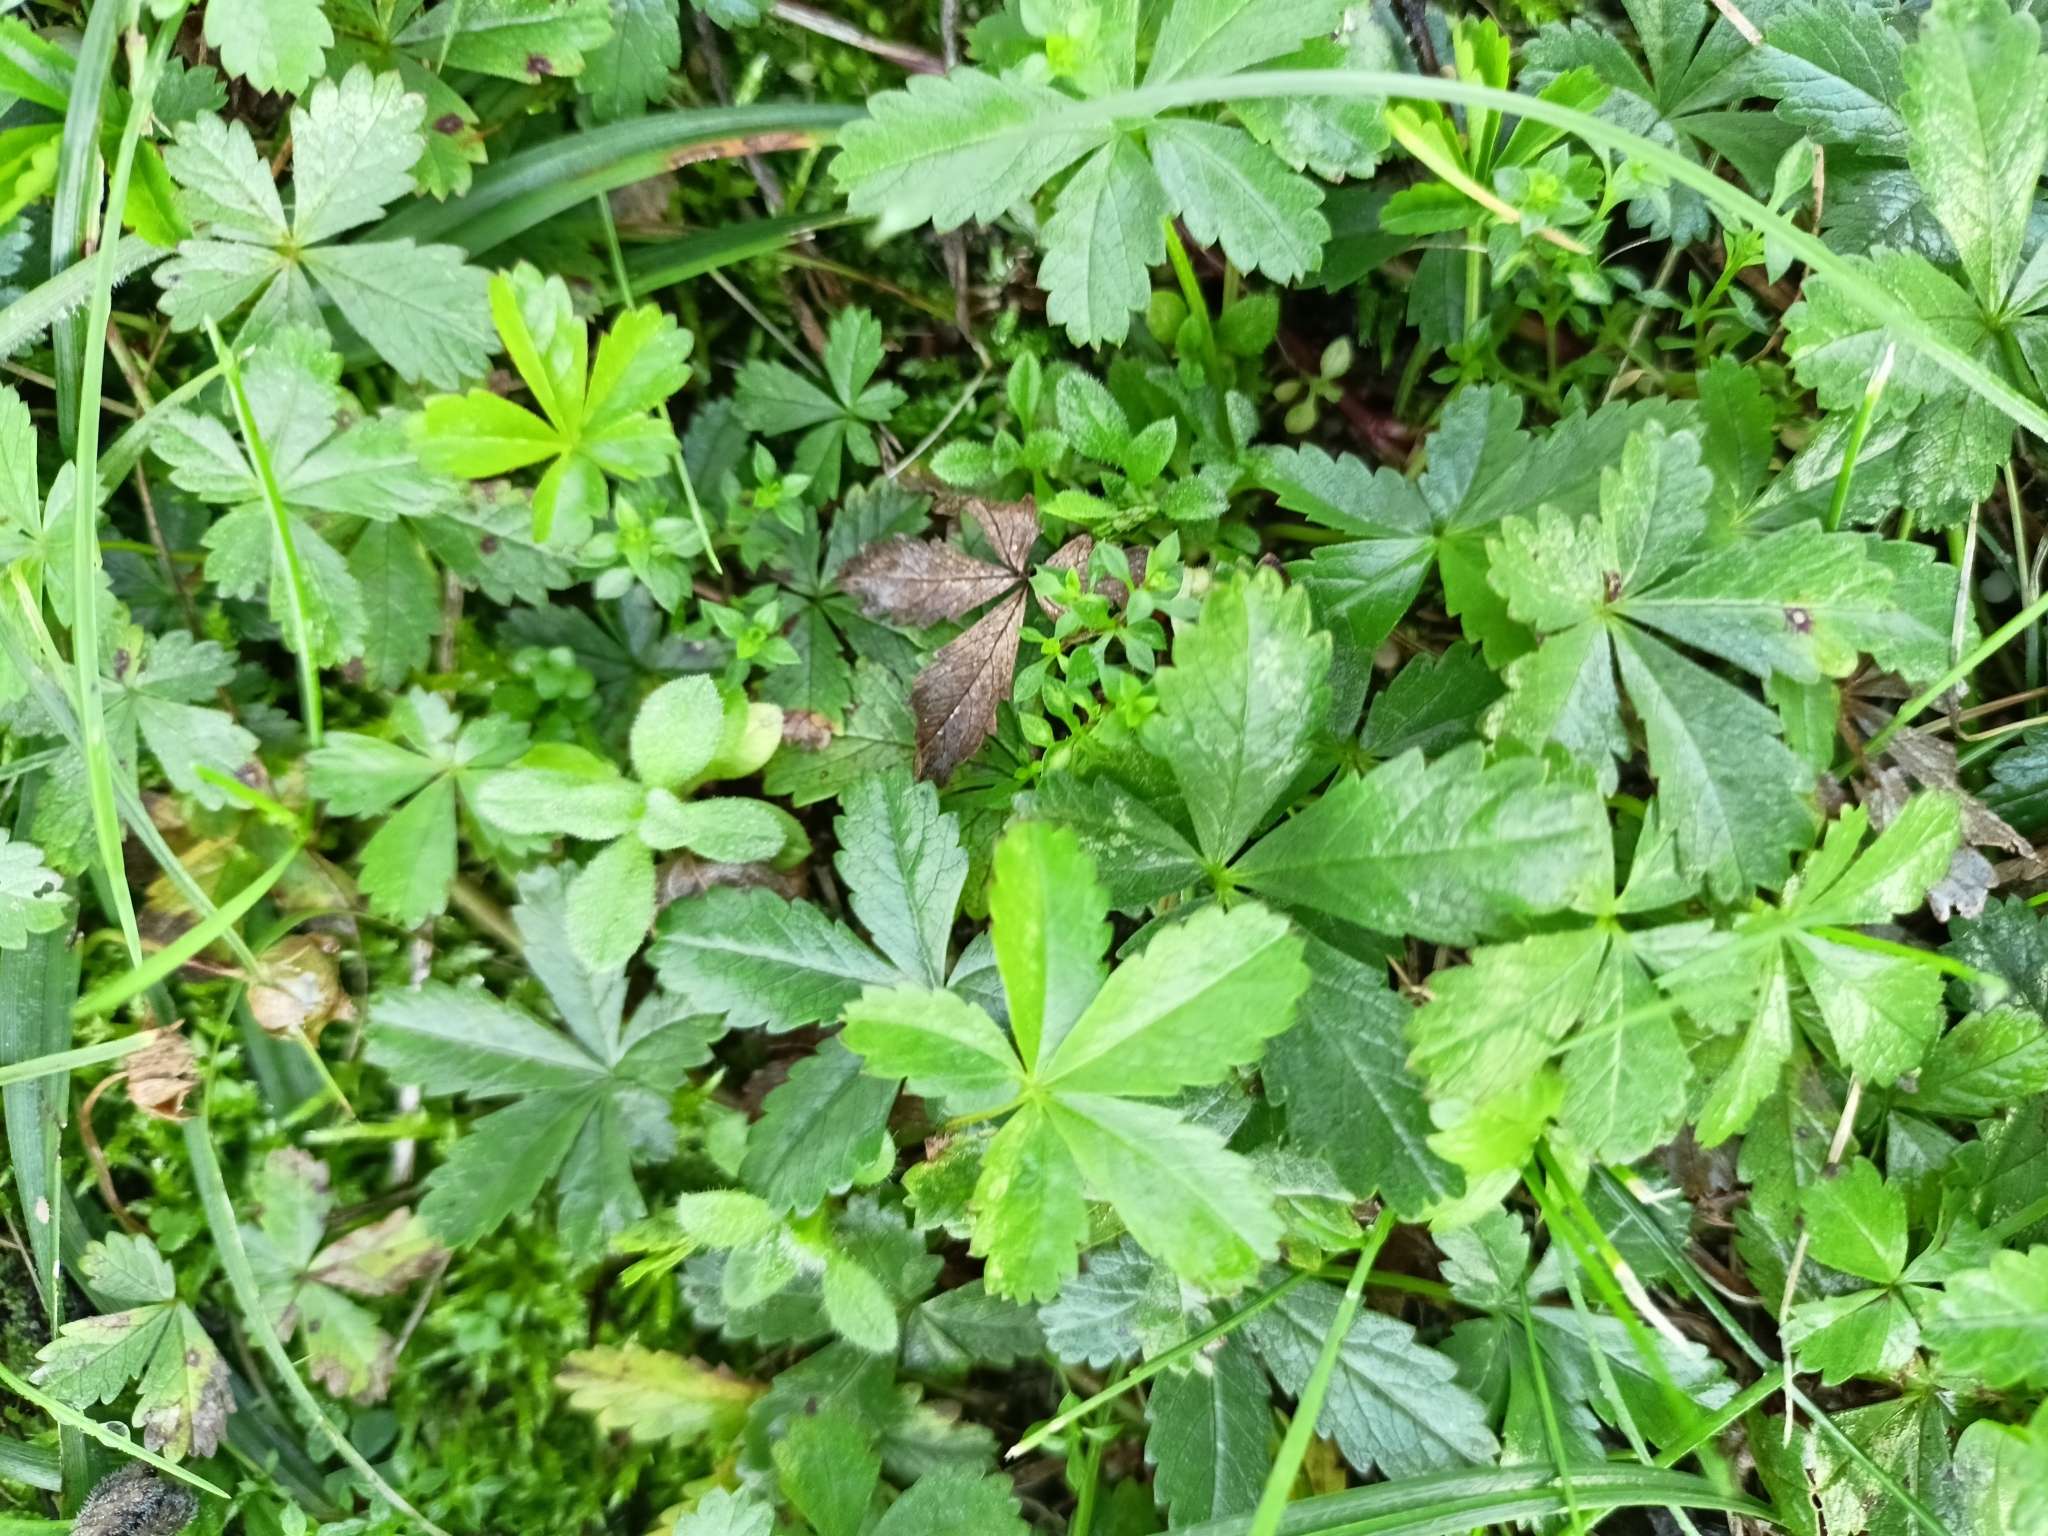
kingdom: Plantae
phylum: Tracheophyta
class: Magnoliopsida
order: Rosales
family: Rosaceae
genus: Potentilla
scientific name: Potentilla reptans
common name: Creeping cinquefoil
